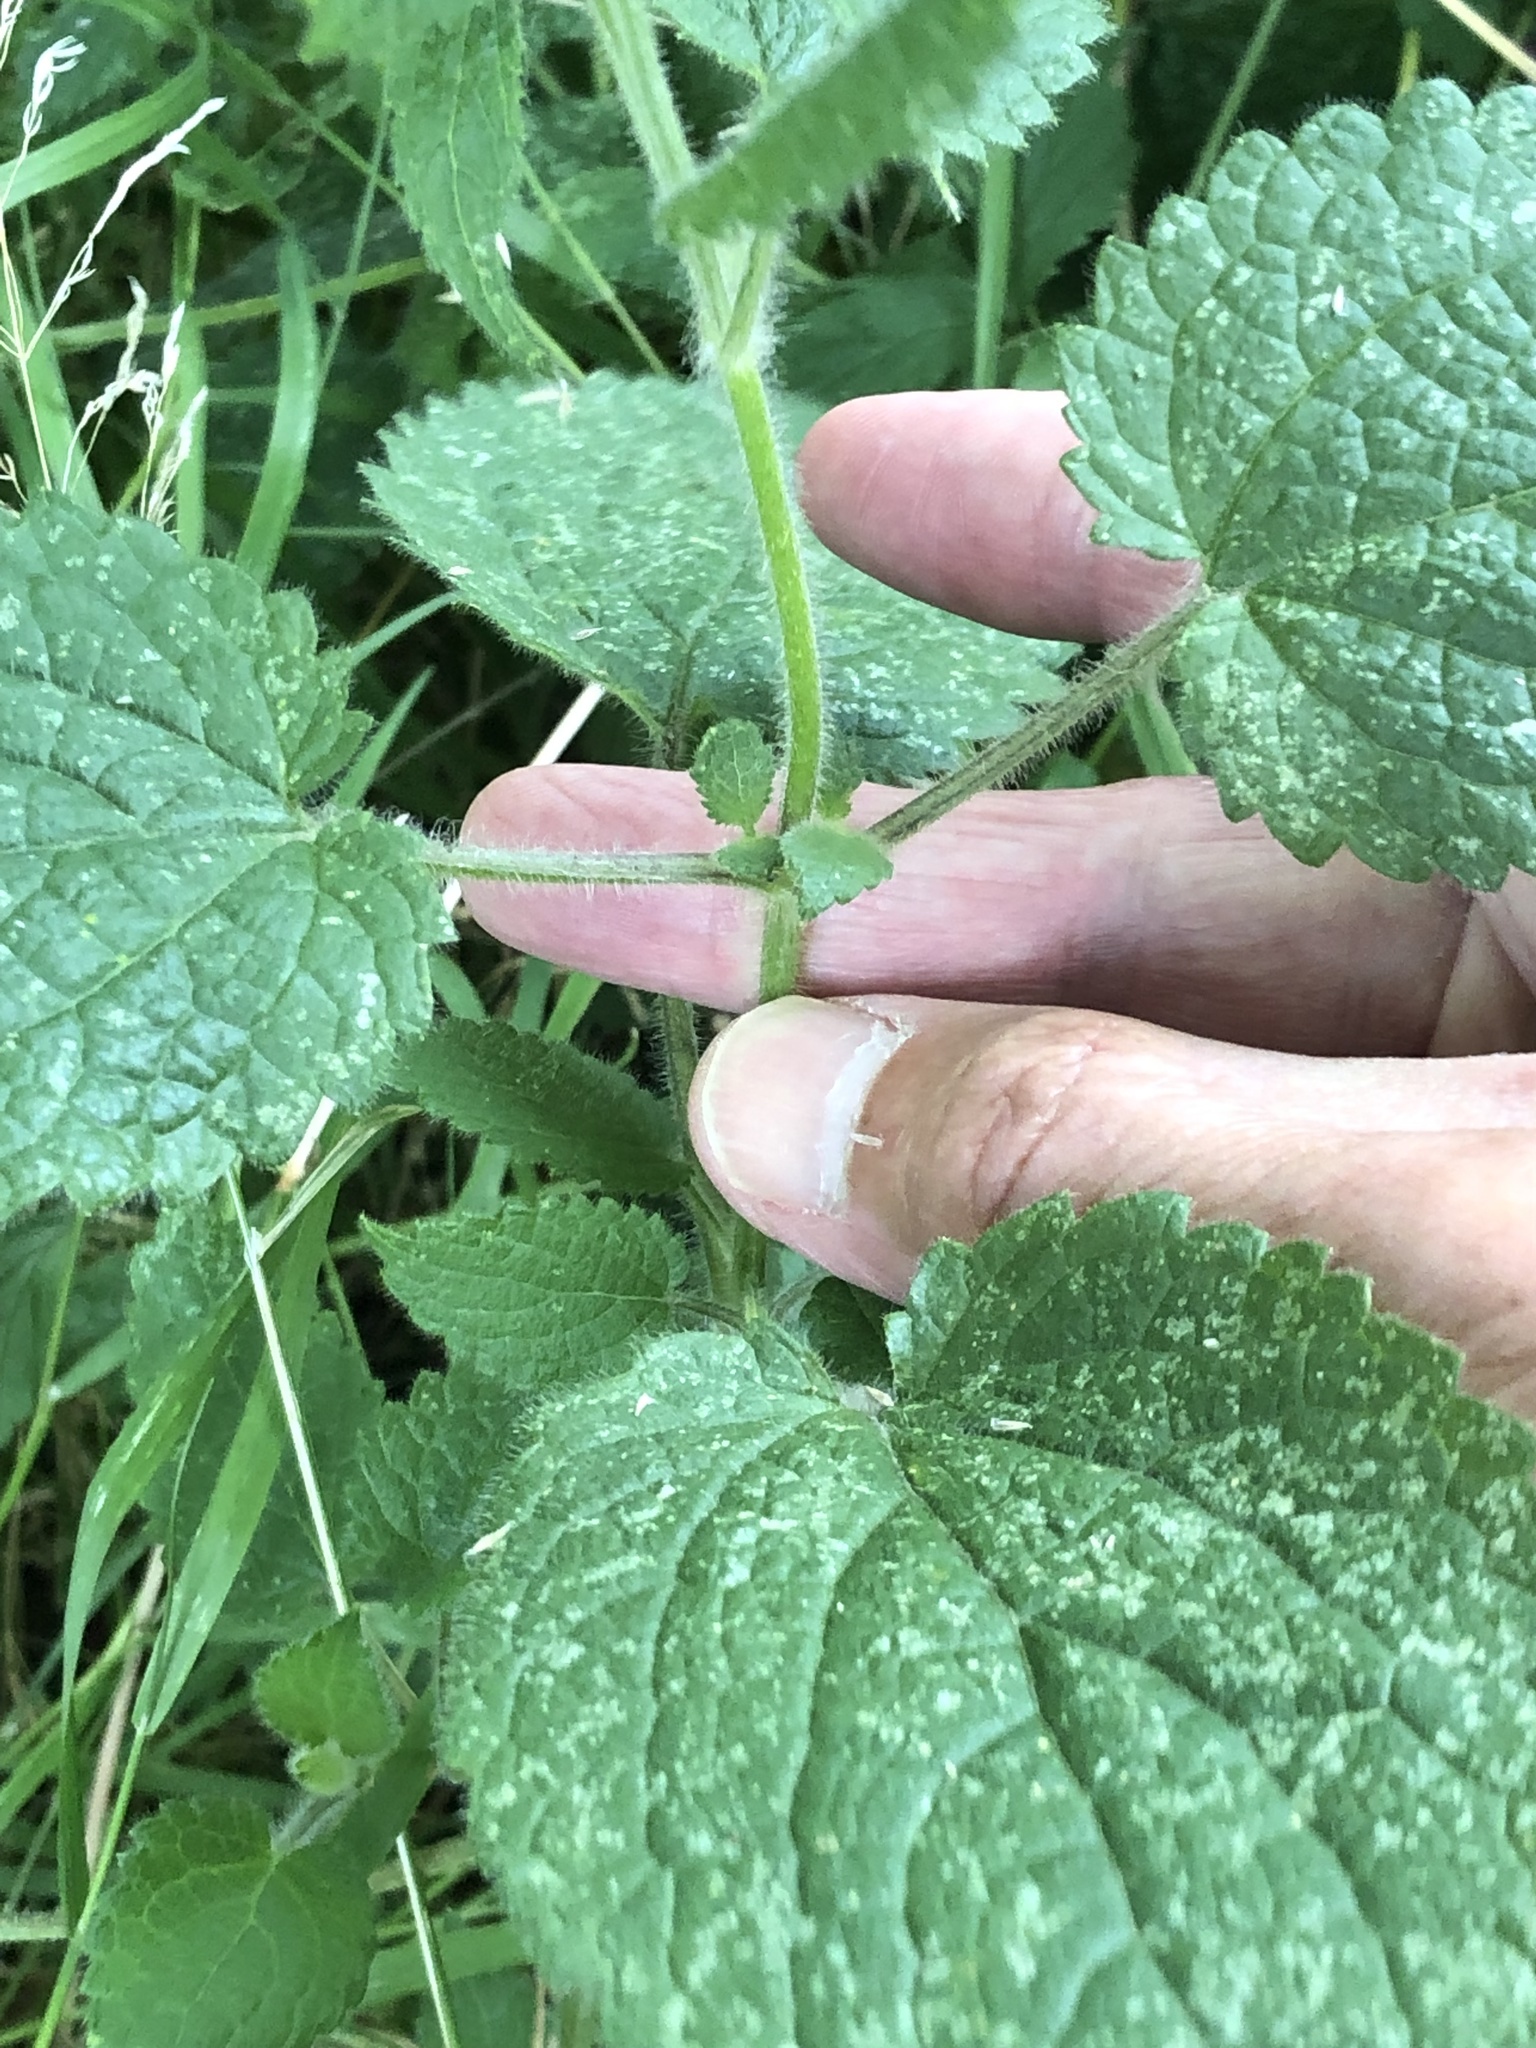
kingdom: Plantae
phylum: Tracheophyta
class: Magnoliopsida
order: Lamiales
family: Lamiaceae
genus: Stachys
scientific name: Stachys sylvatica
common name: Hedge woundwort
